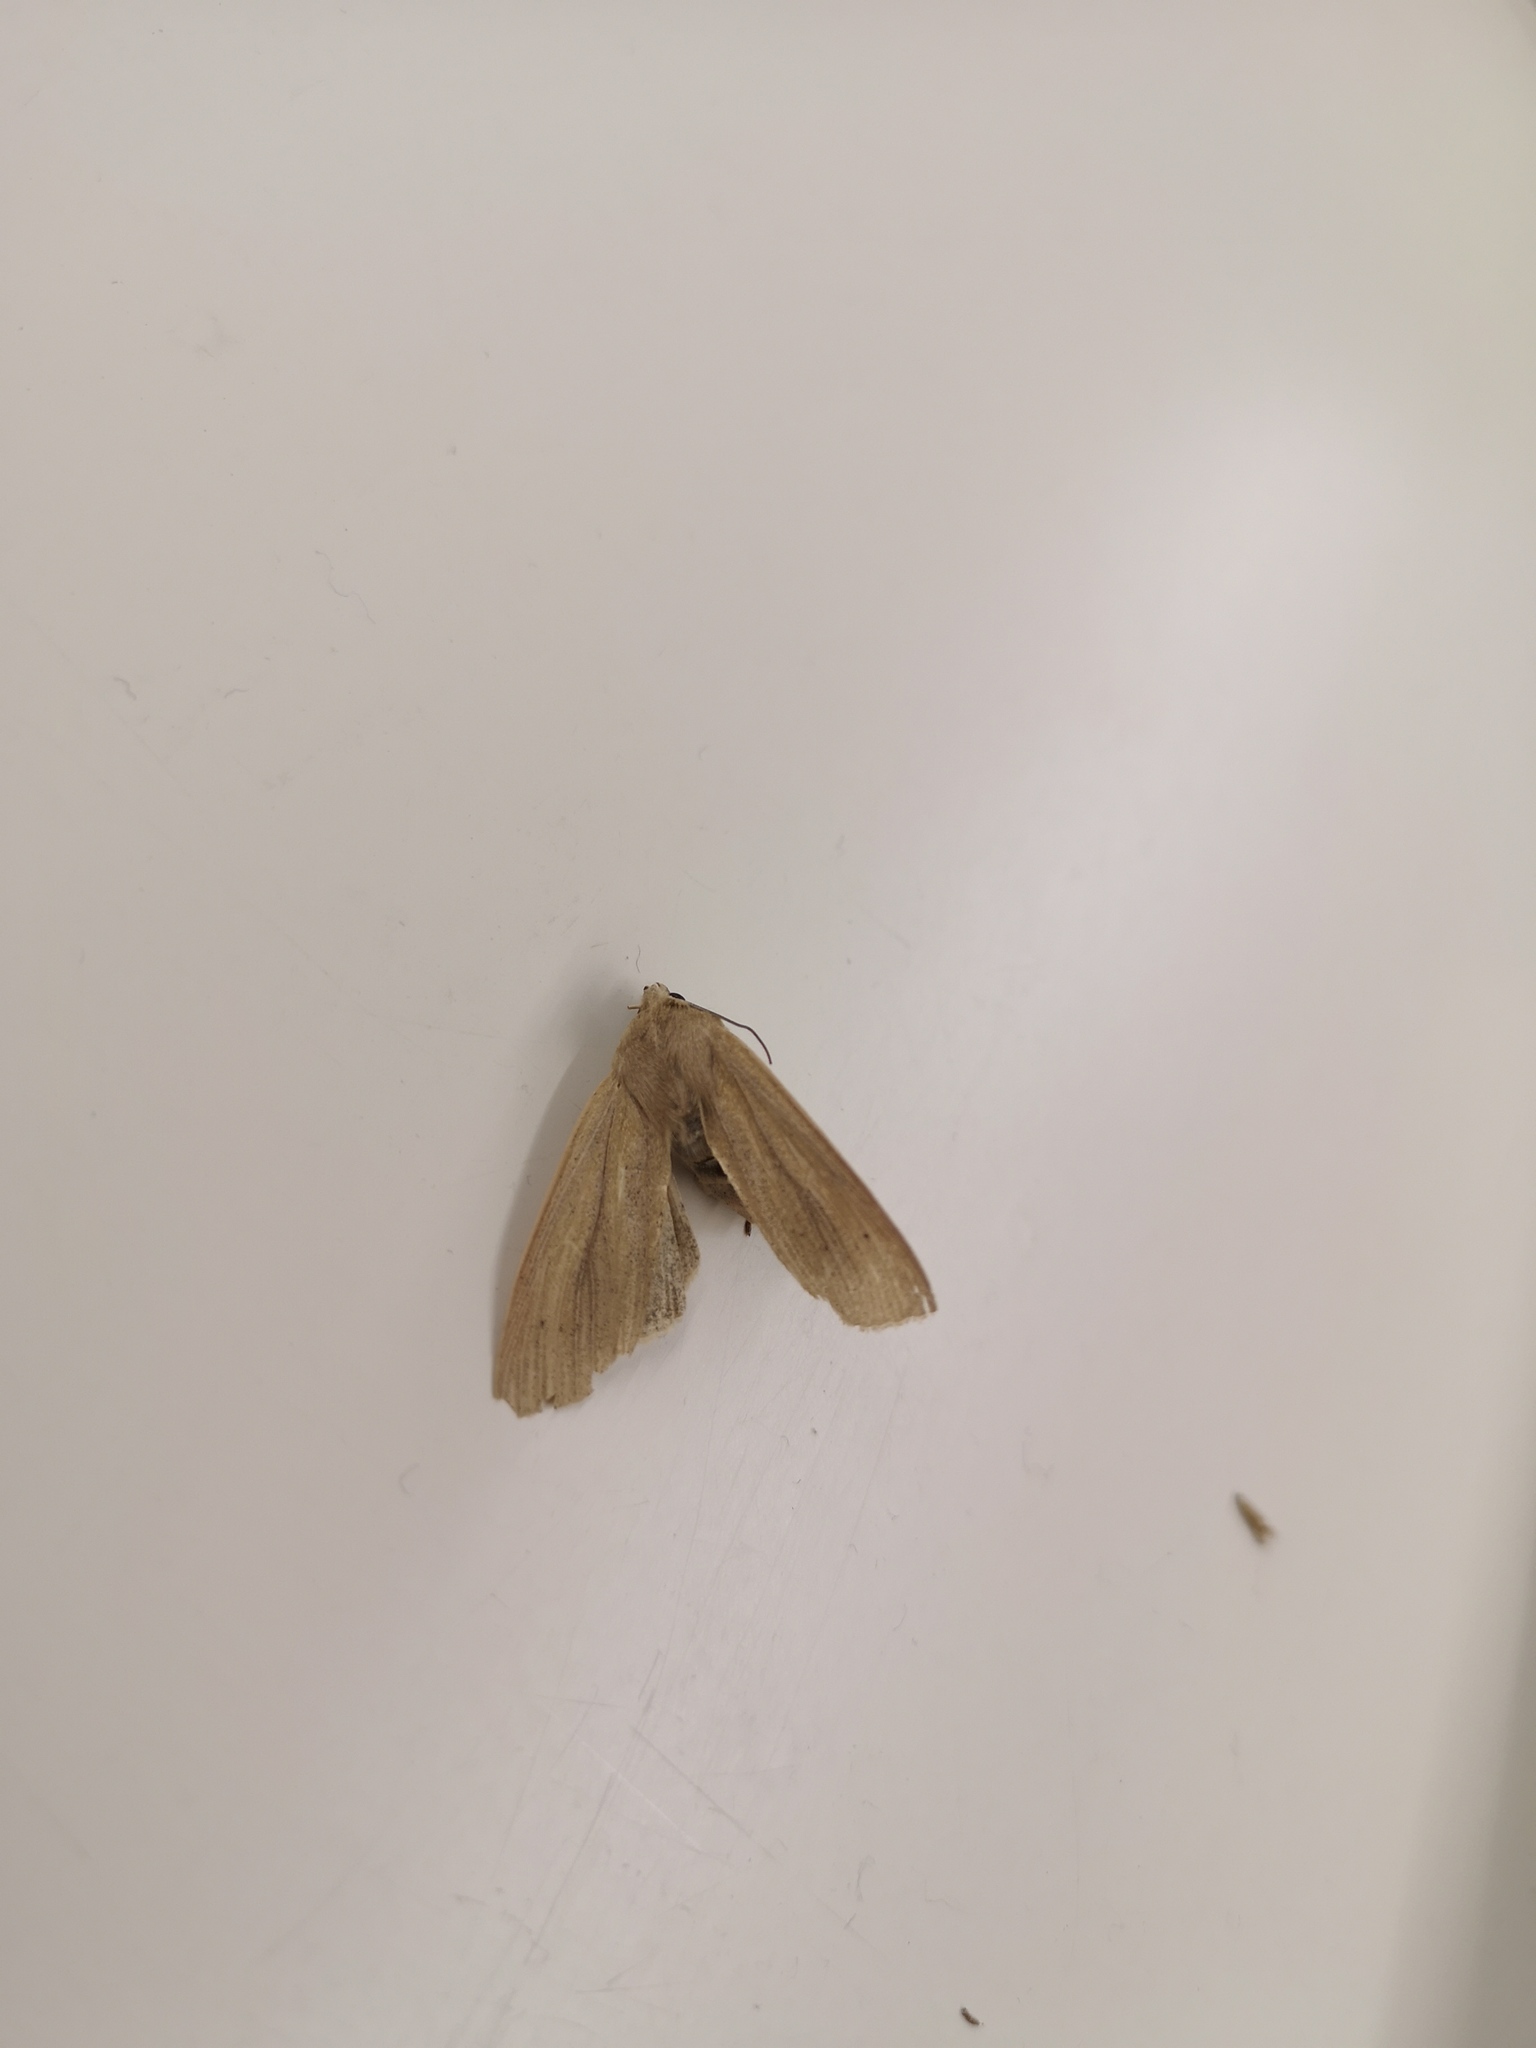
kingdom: Animalia
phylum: Arthropoda
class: Insecta
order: Lepidoptera
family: Noctuidae
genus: Rhizedra
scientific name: Rhizedra lutosa
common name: Large wainscot
